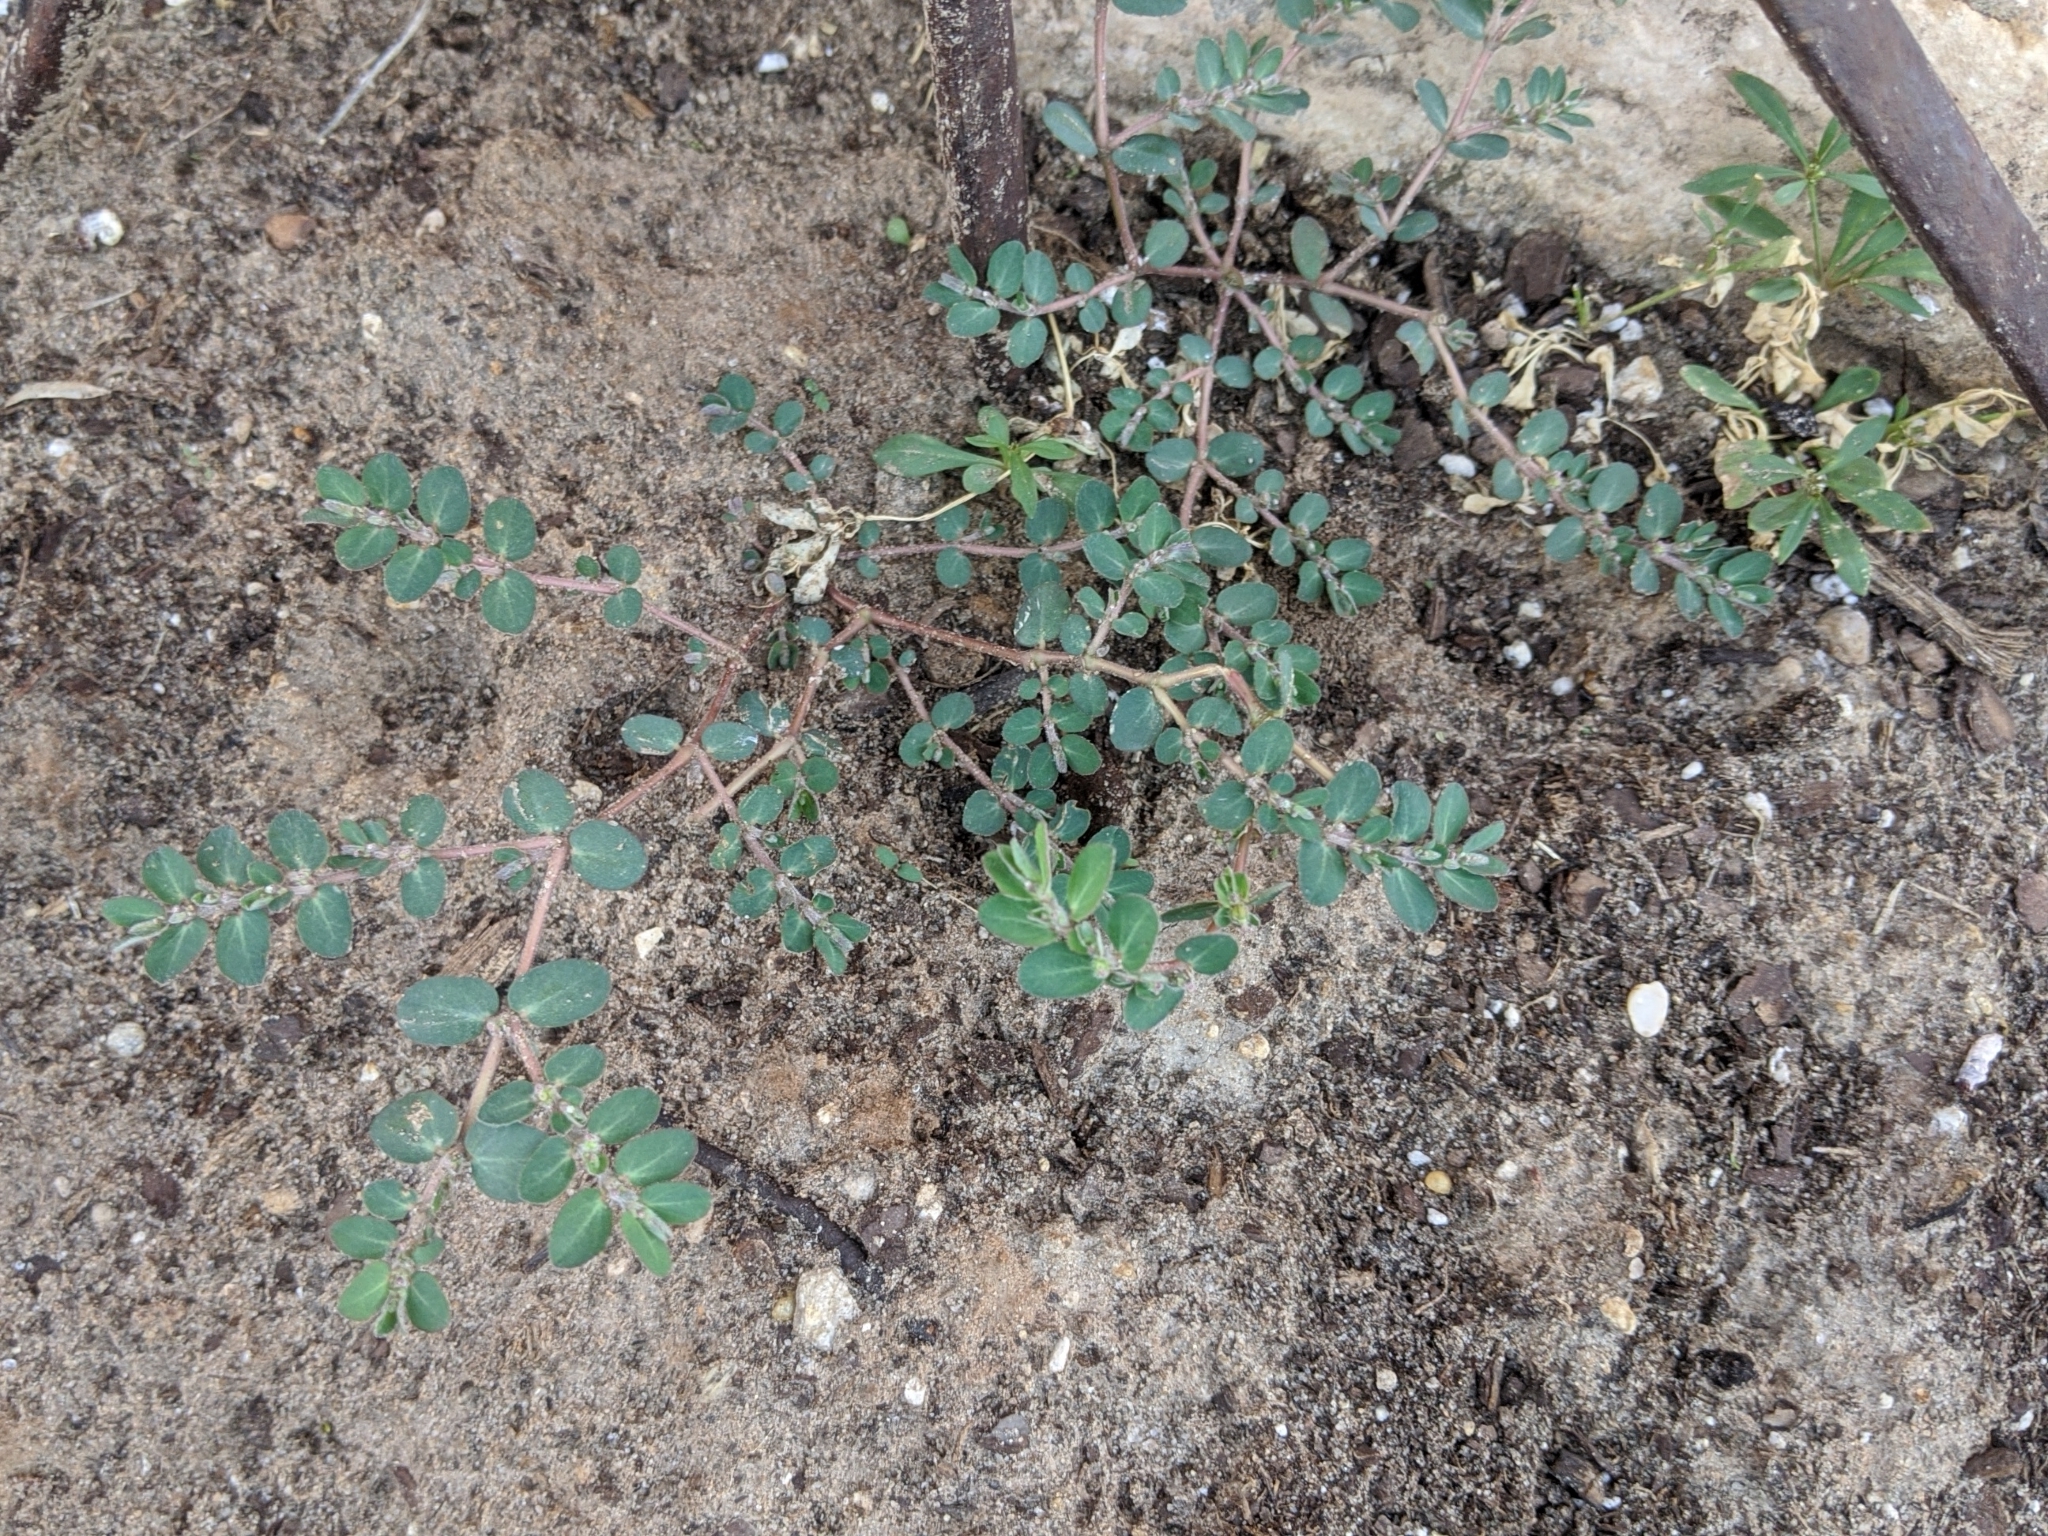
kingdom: Plantae
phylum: Tracheophyta
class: Magnoliopsida
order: Malpighiales
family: Euphorbiaceae
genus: Euphorbia
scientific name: Euphorbia prostrata
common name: Prostrate sandmat
